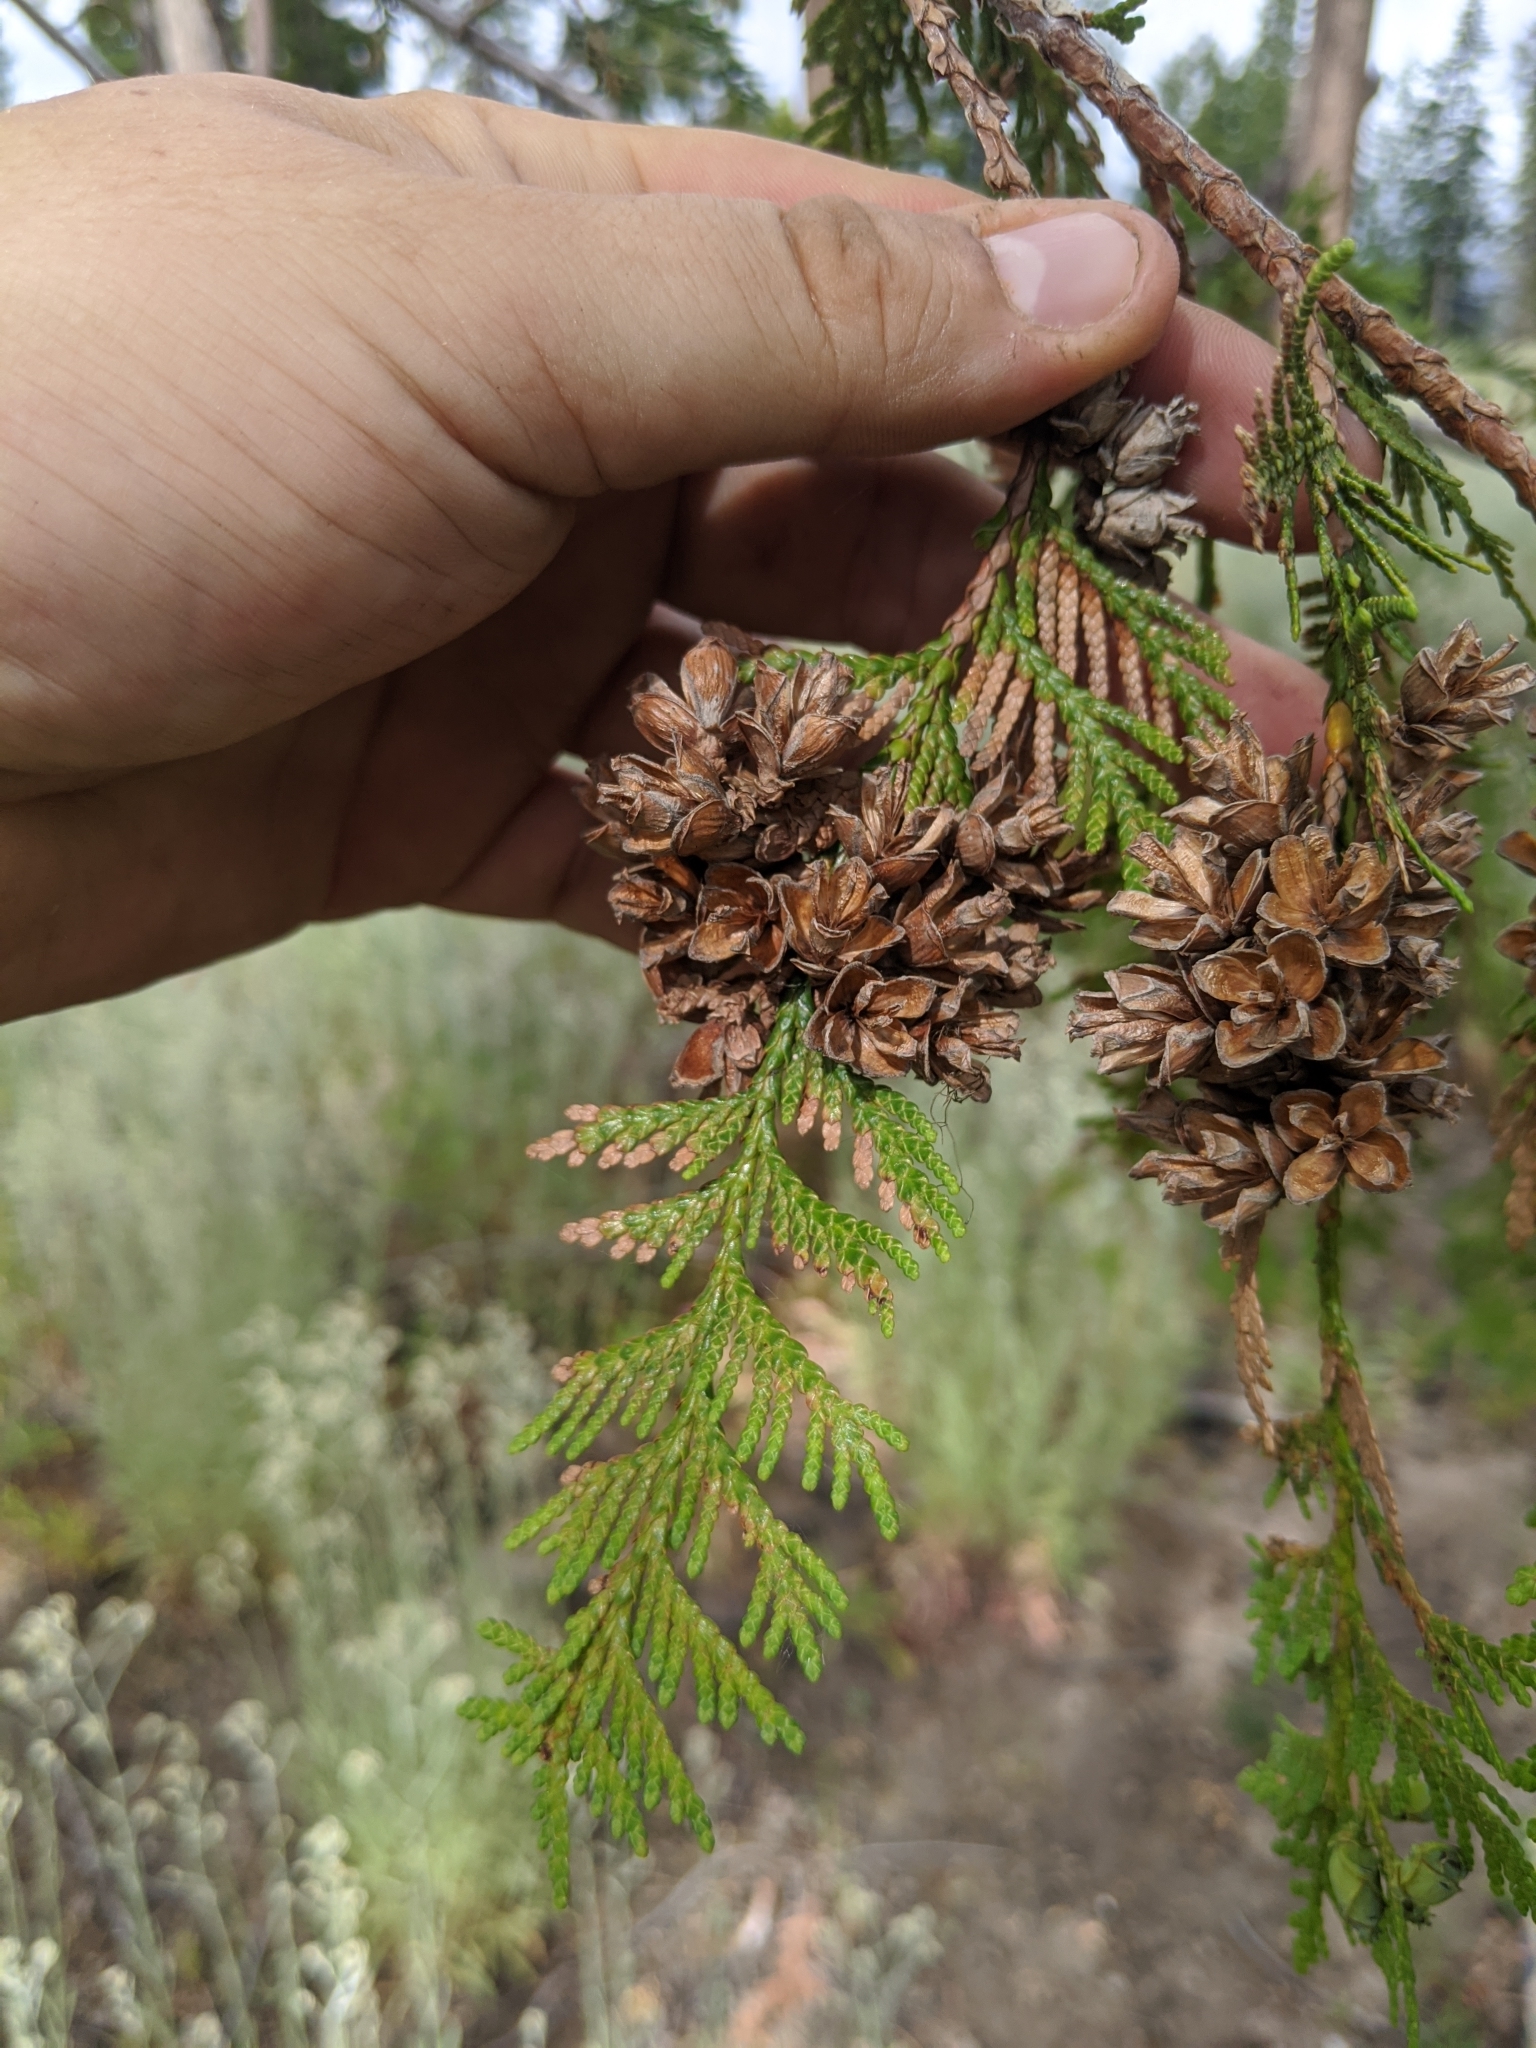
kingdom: Plantae
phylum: Tracheophyta
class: Pinopsida
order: Pinales
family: Cupressaceae
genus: Thuja
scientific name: Thuja plicata
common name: Western red-cedar
